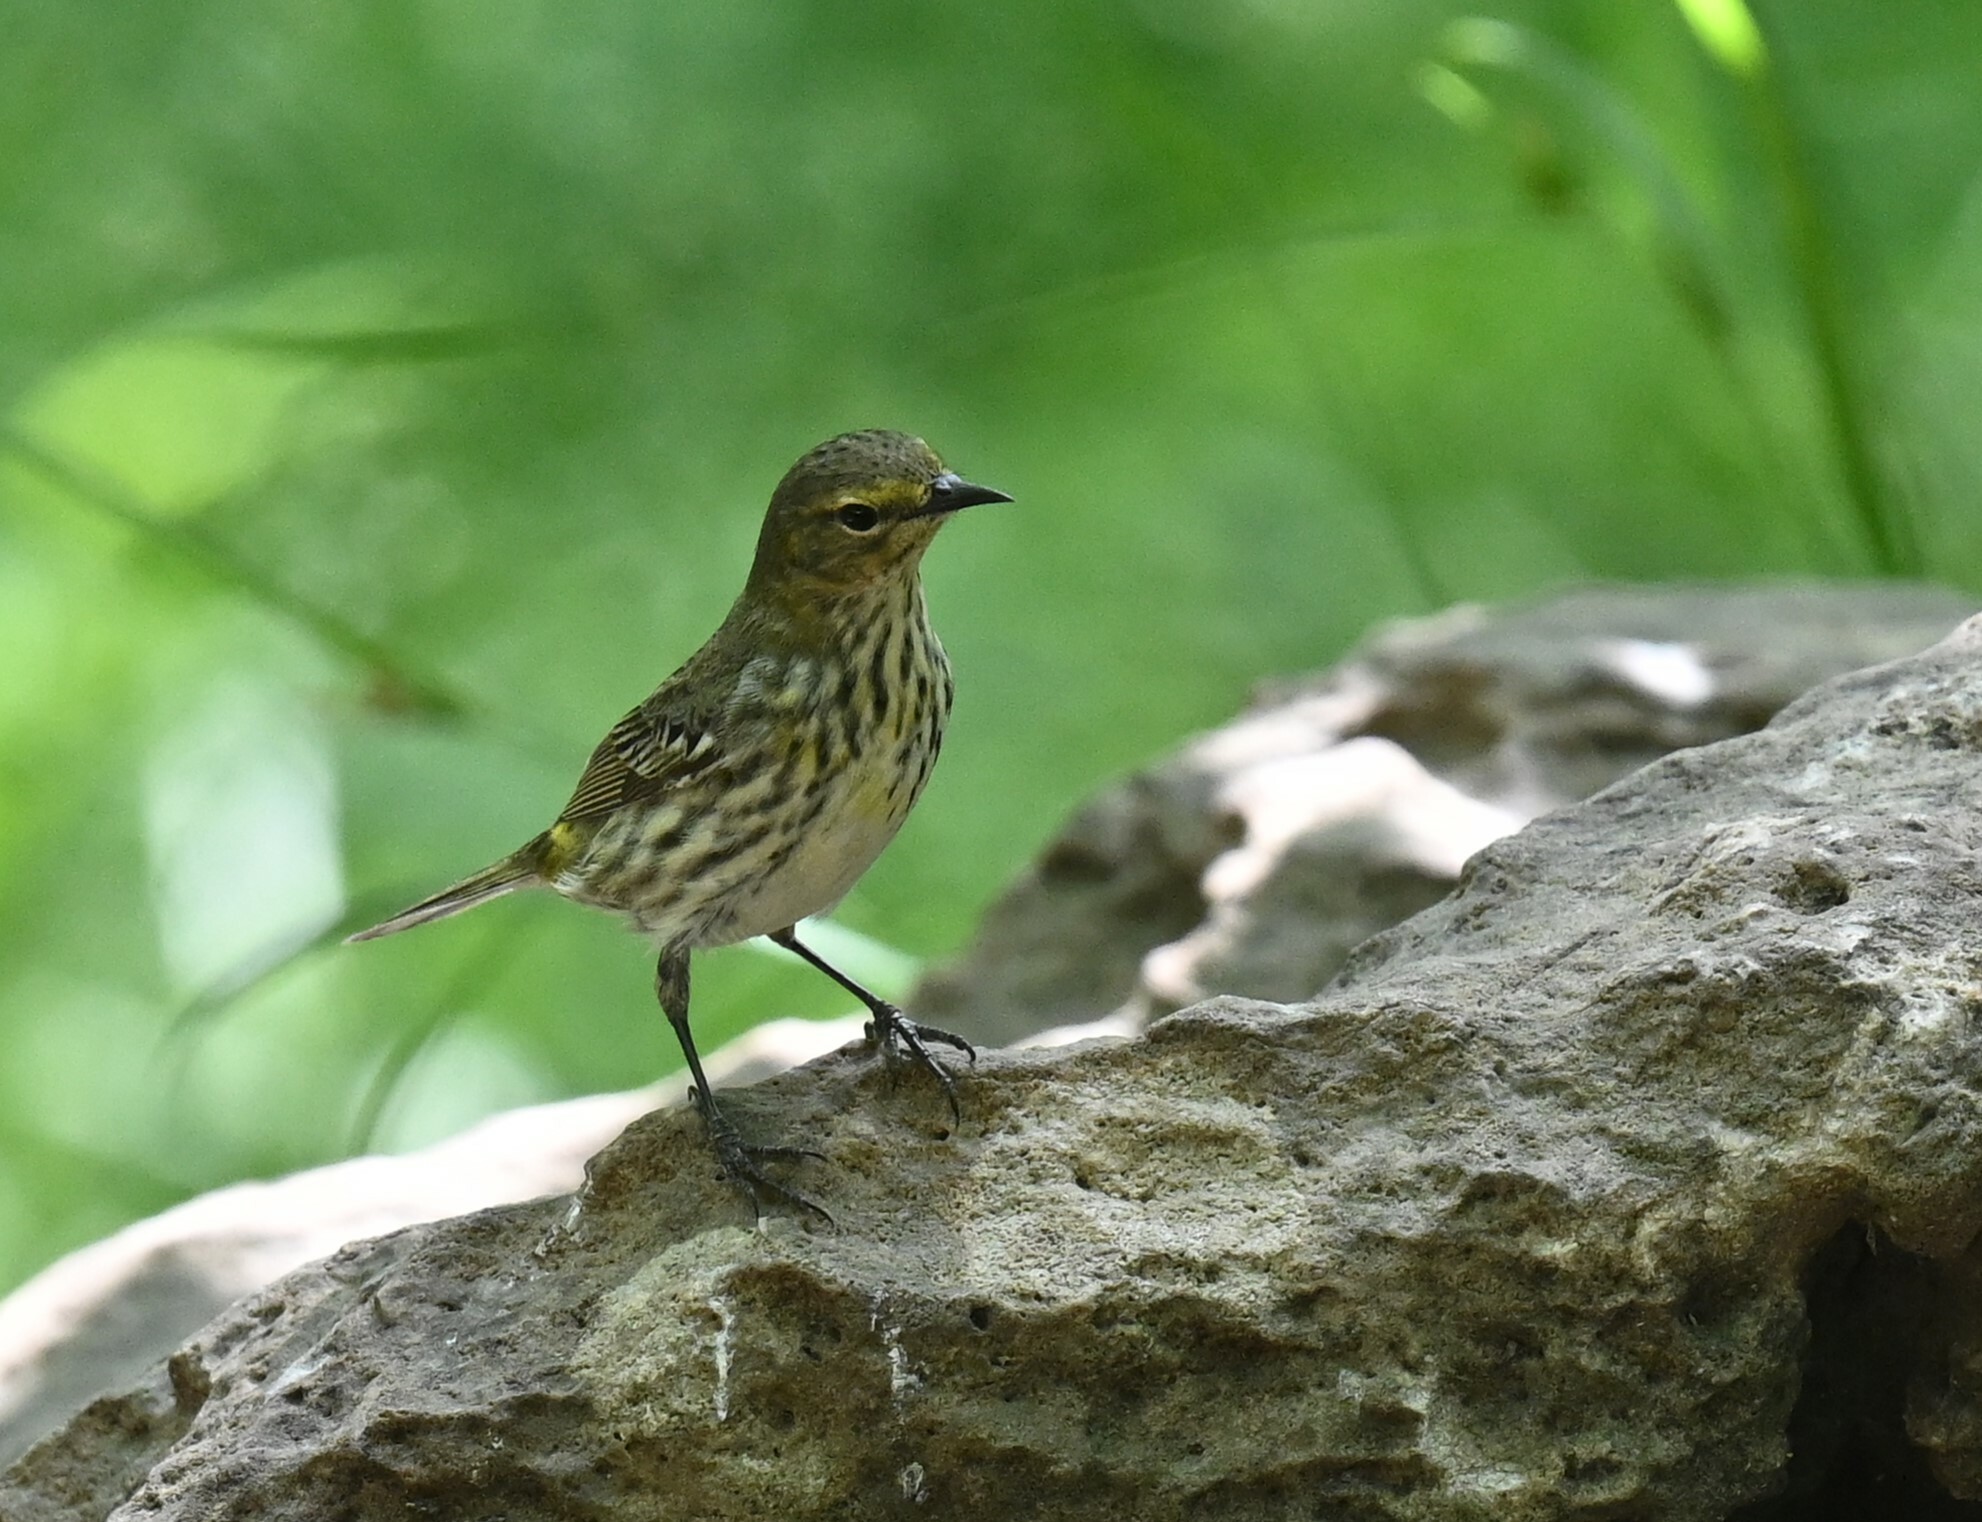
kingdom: Animalia
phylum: Chordata
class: Aves
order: Passeriformes
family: Parulidae
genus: Setophaga
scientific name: Setophaga tigrina
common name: Cape may warbler
